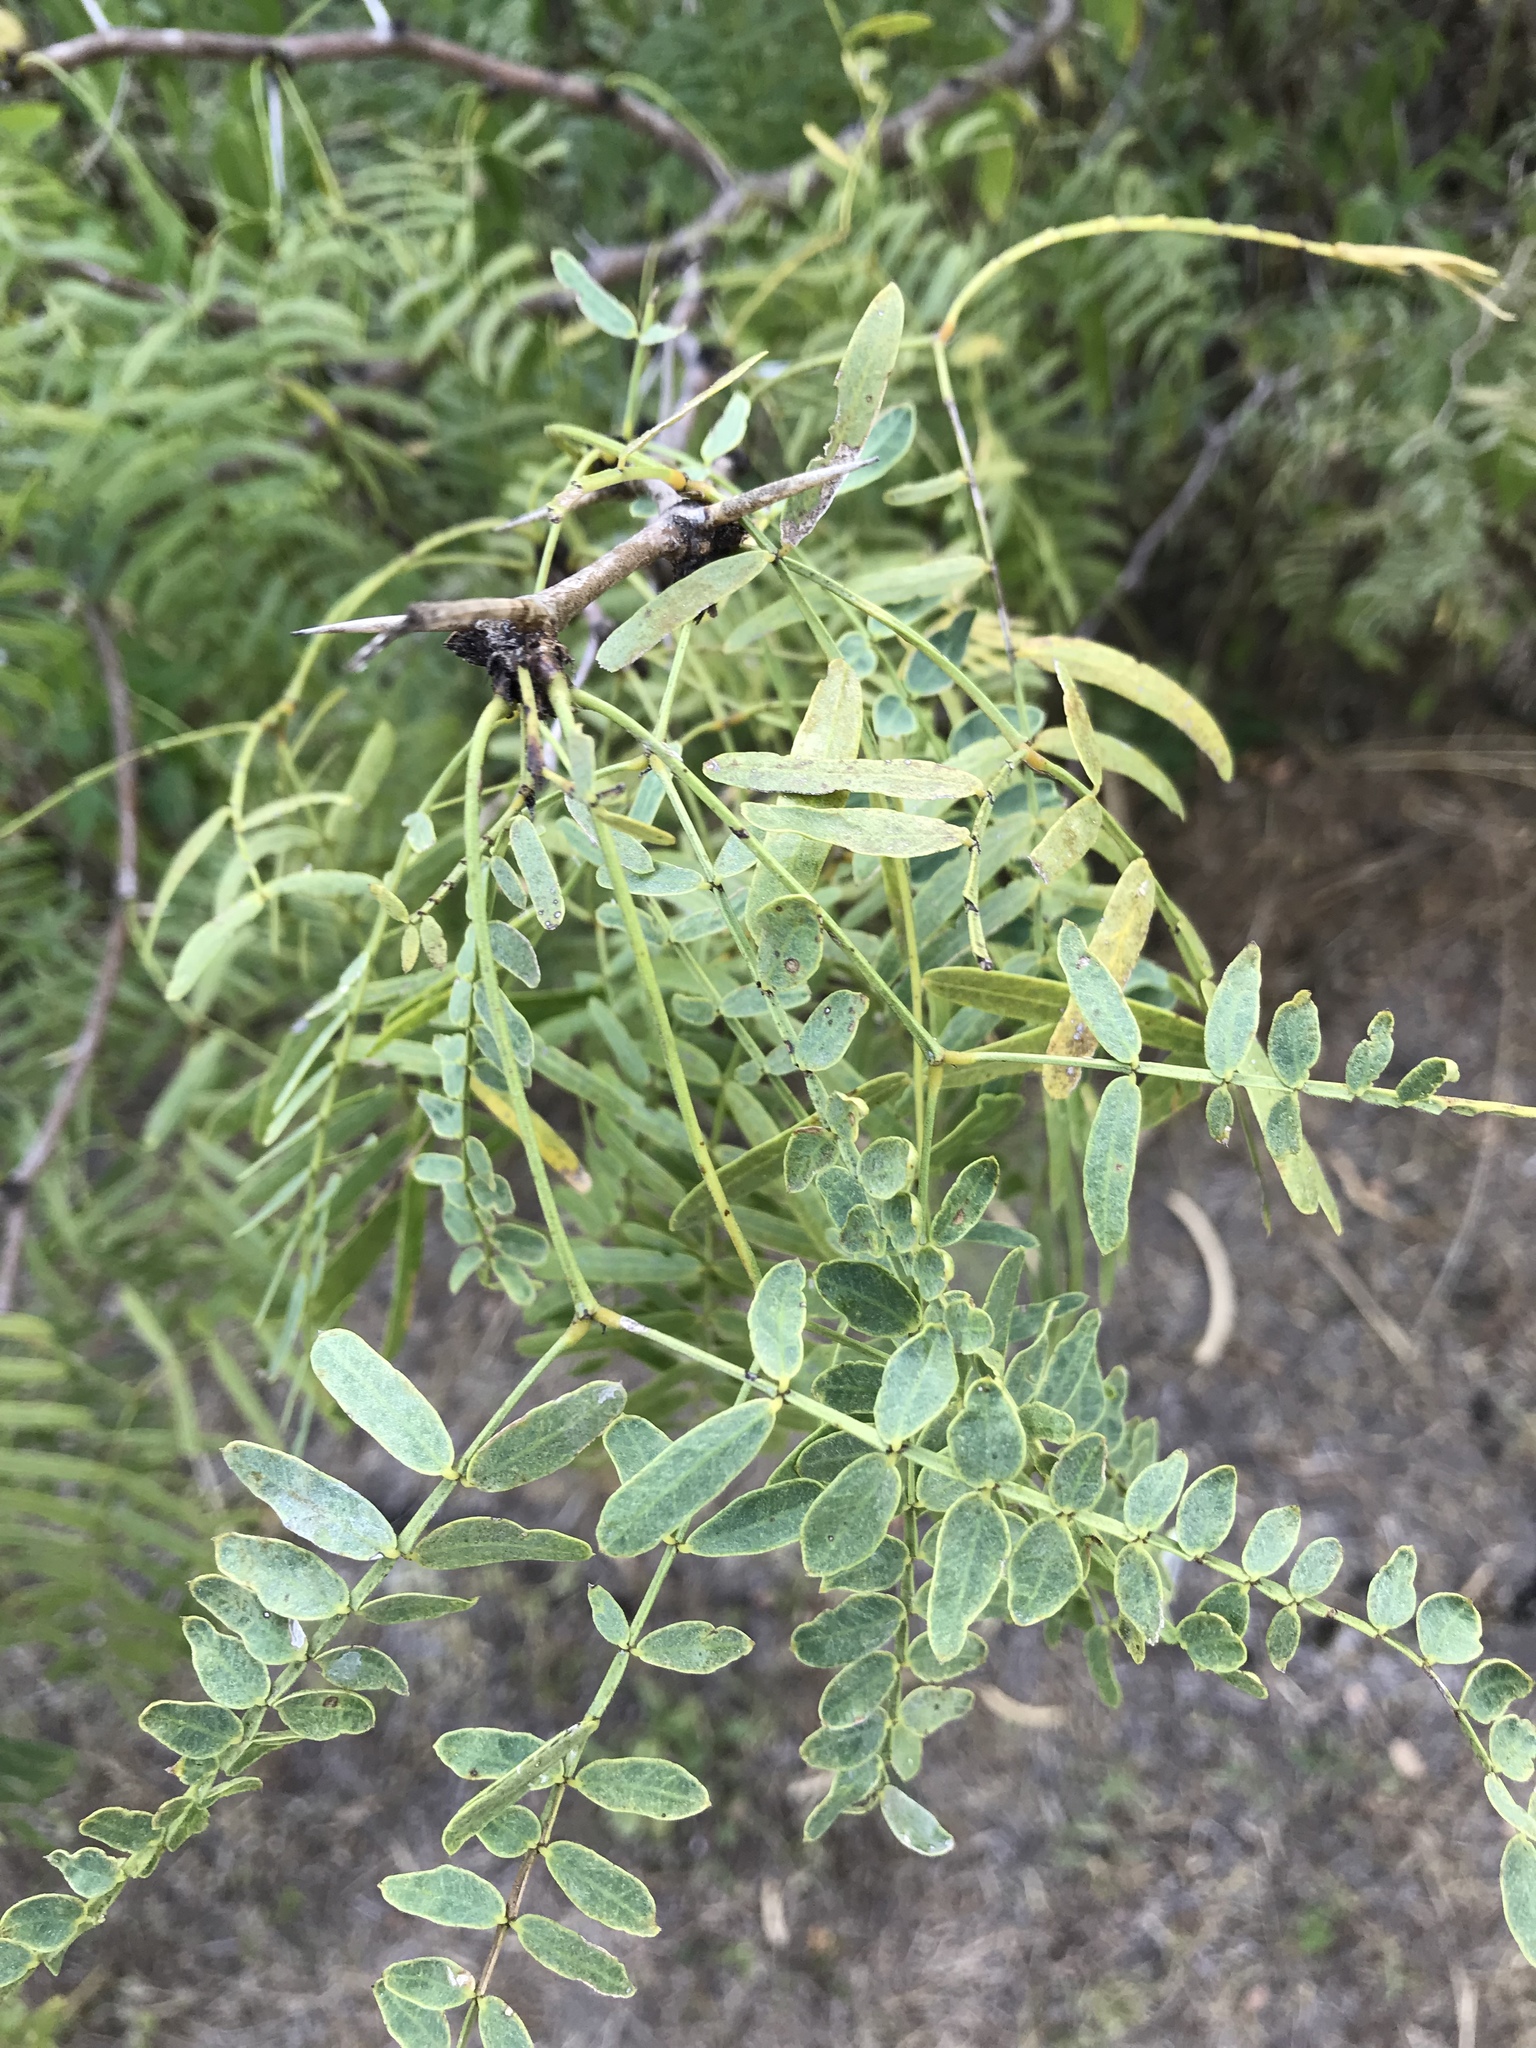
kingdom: Plantae
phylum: Tracheophyta
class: Magnoliopsida
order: Fabales
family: Fabaceae
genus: Prosopis
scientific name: Prosopis glandulosa
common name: Honey mesquite
